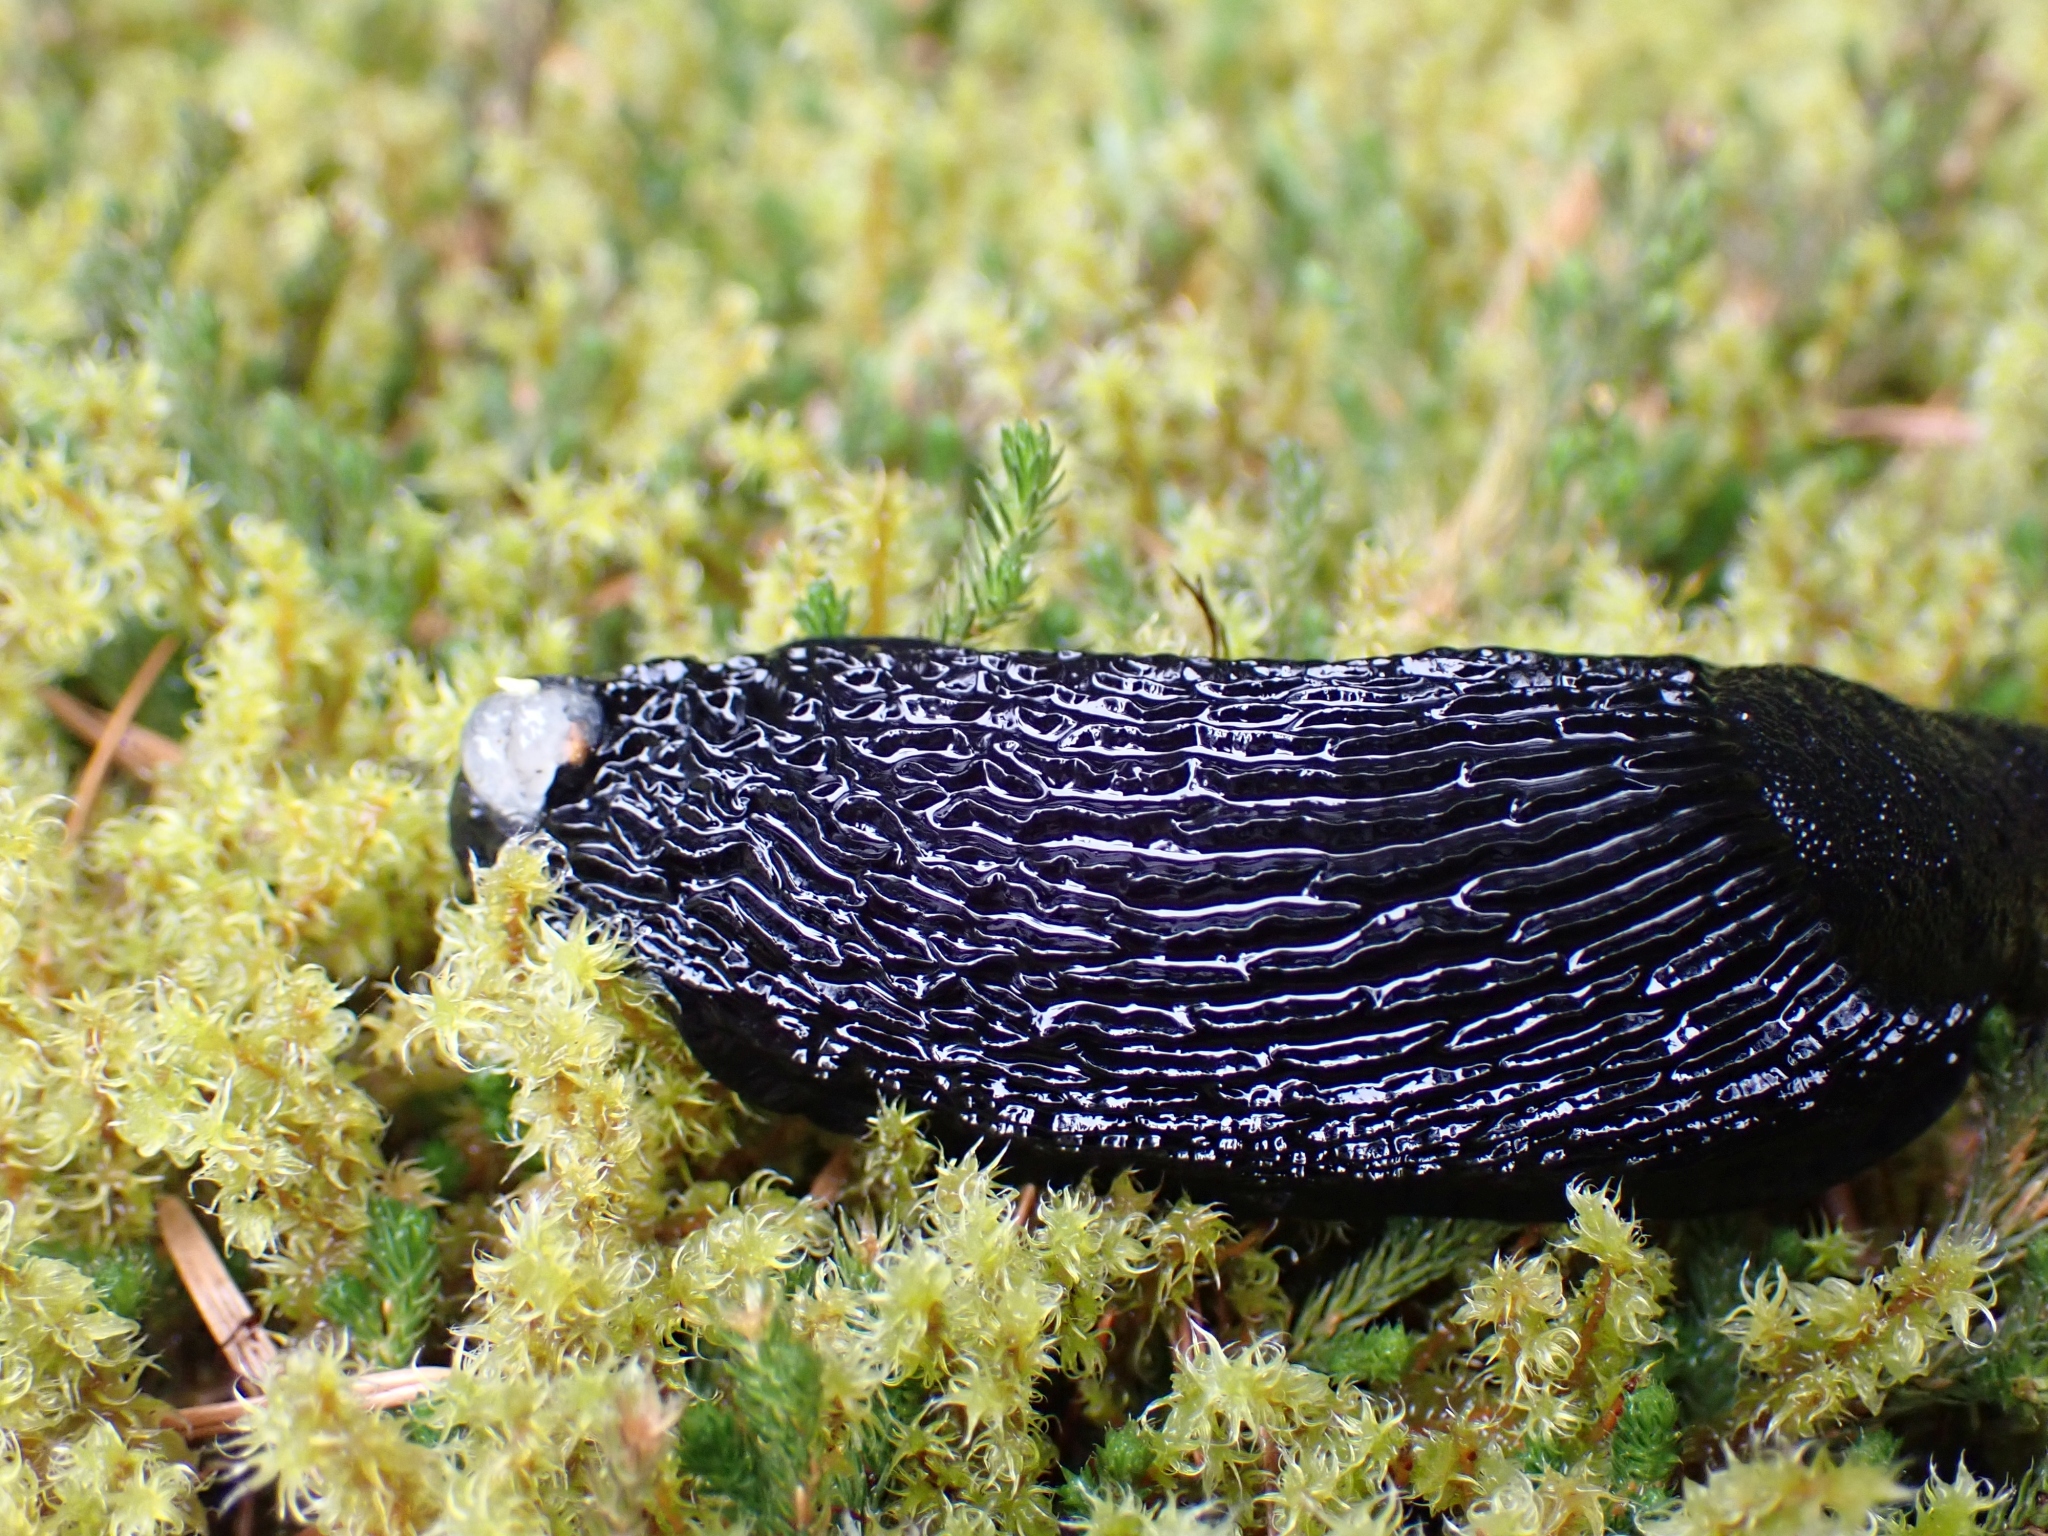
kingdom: Animalia
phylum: Mollusca
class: Gastropoda
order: Stylommatophora
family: Arionidae
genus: Arion
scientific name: Arion
